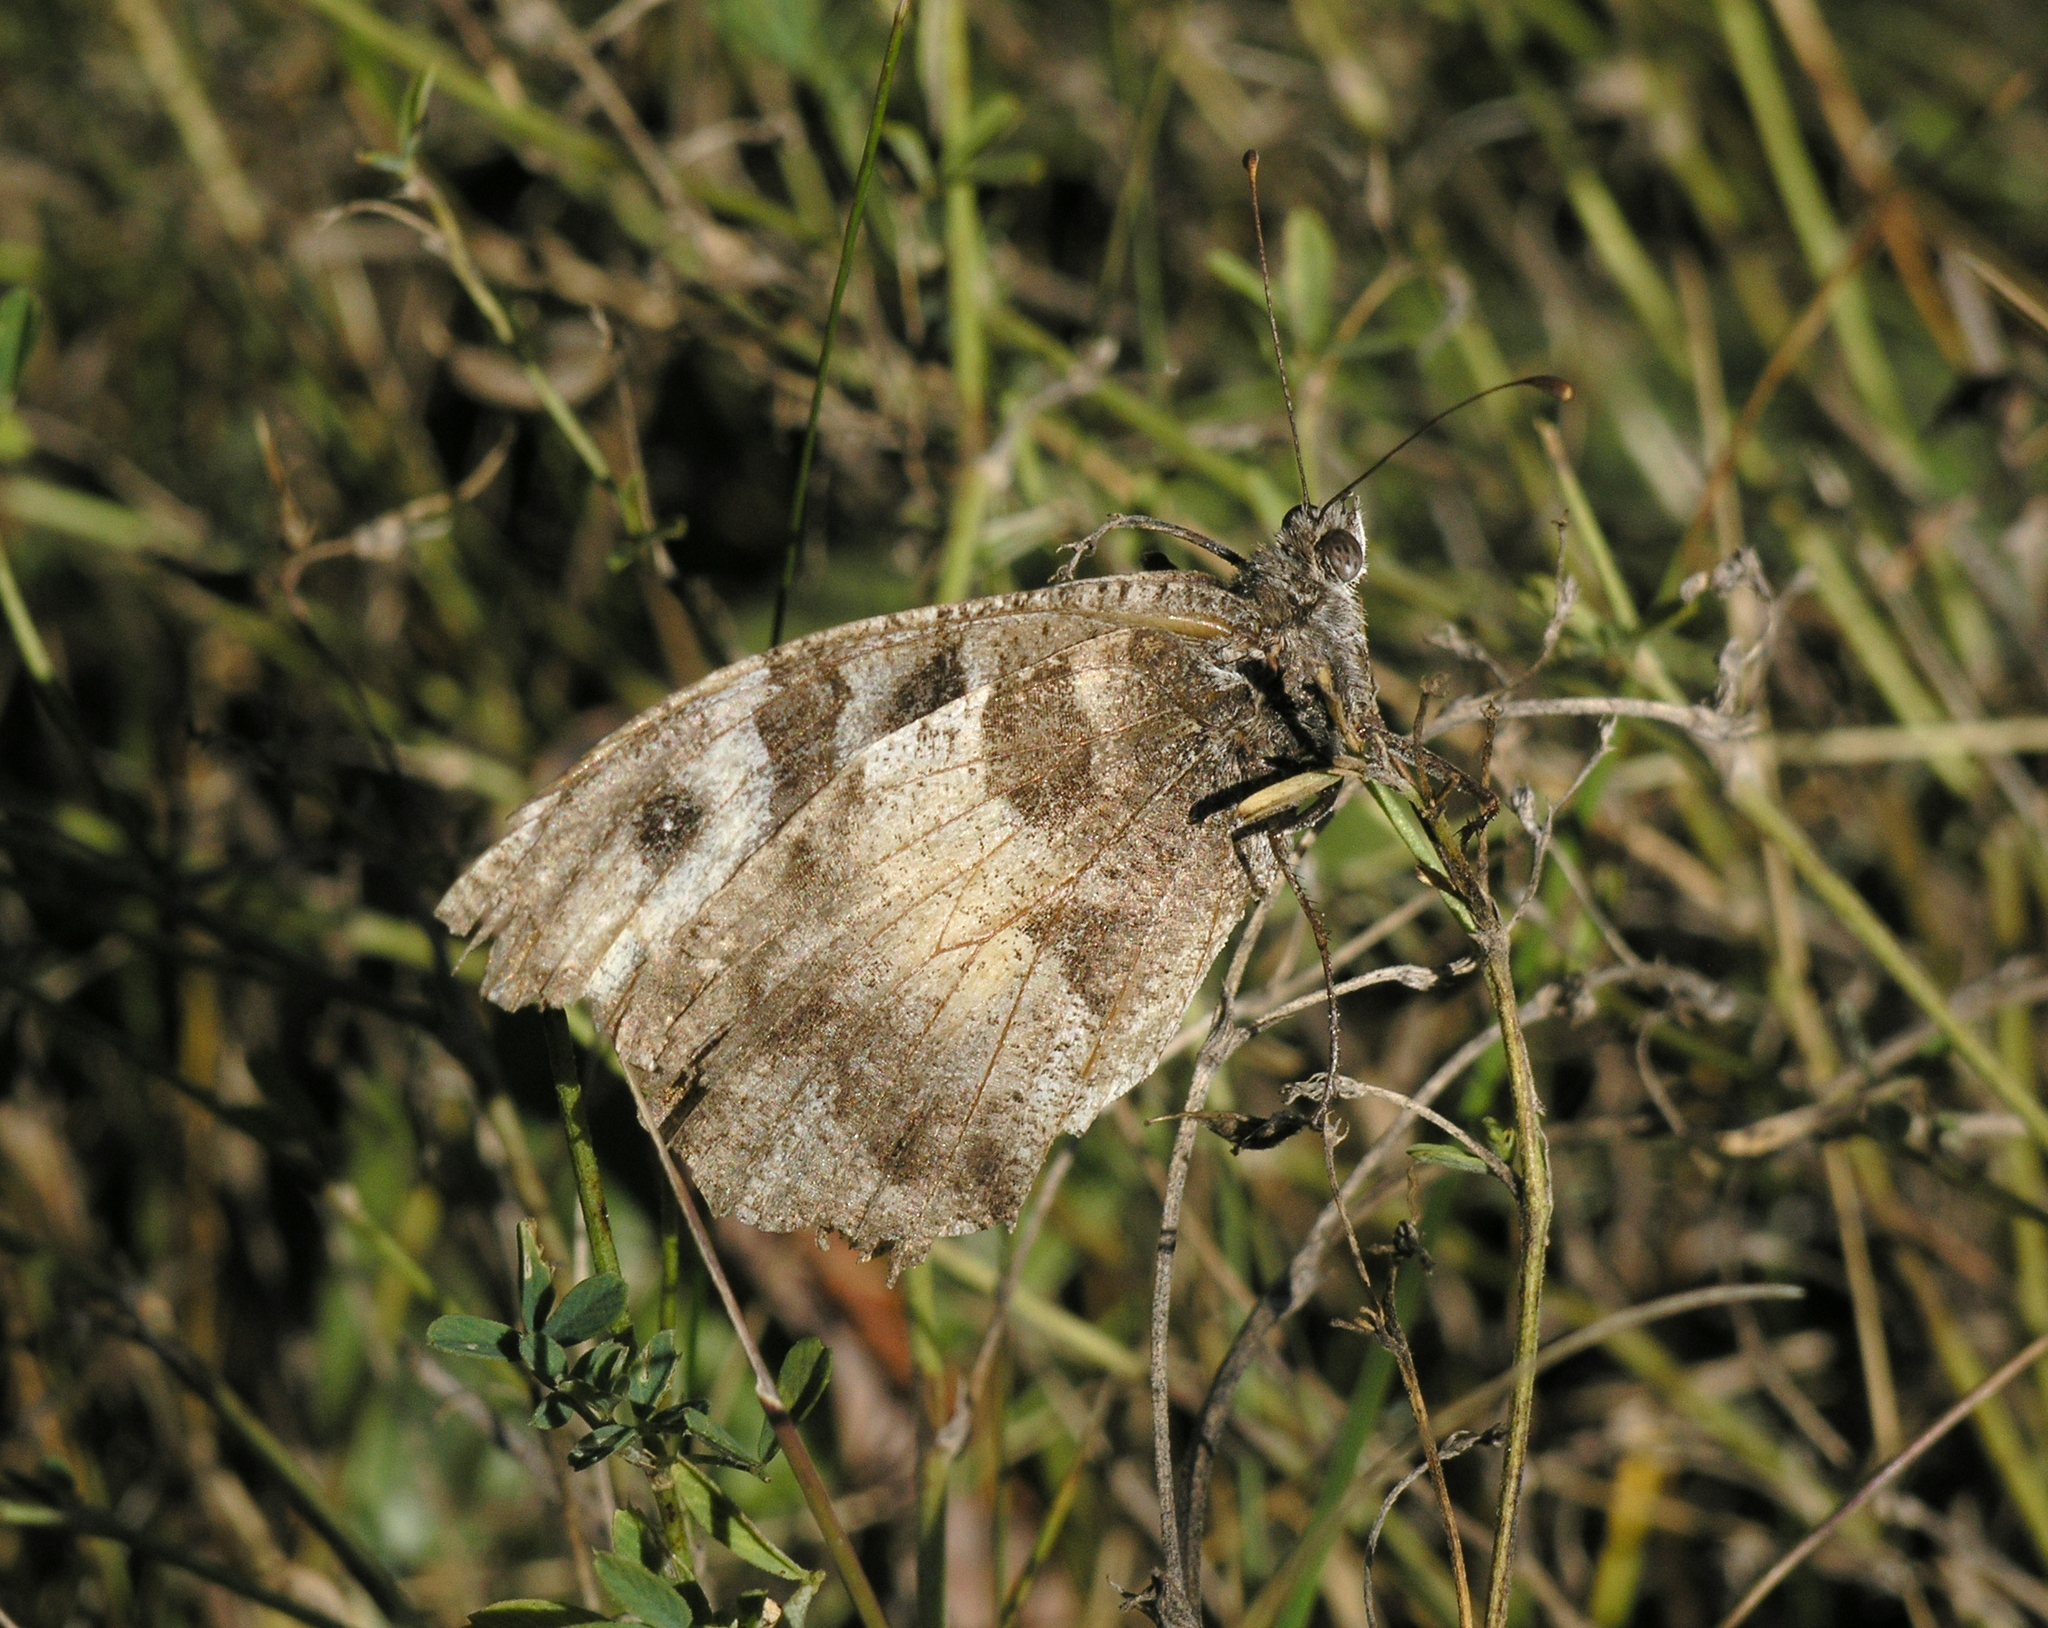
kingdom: Animalia
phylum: Arthropoda
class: Insecta
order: Lepidoptera
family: Nymphalidae
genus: Satyrus
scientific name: Satyrus briseis
